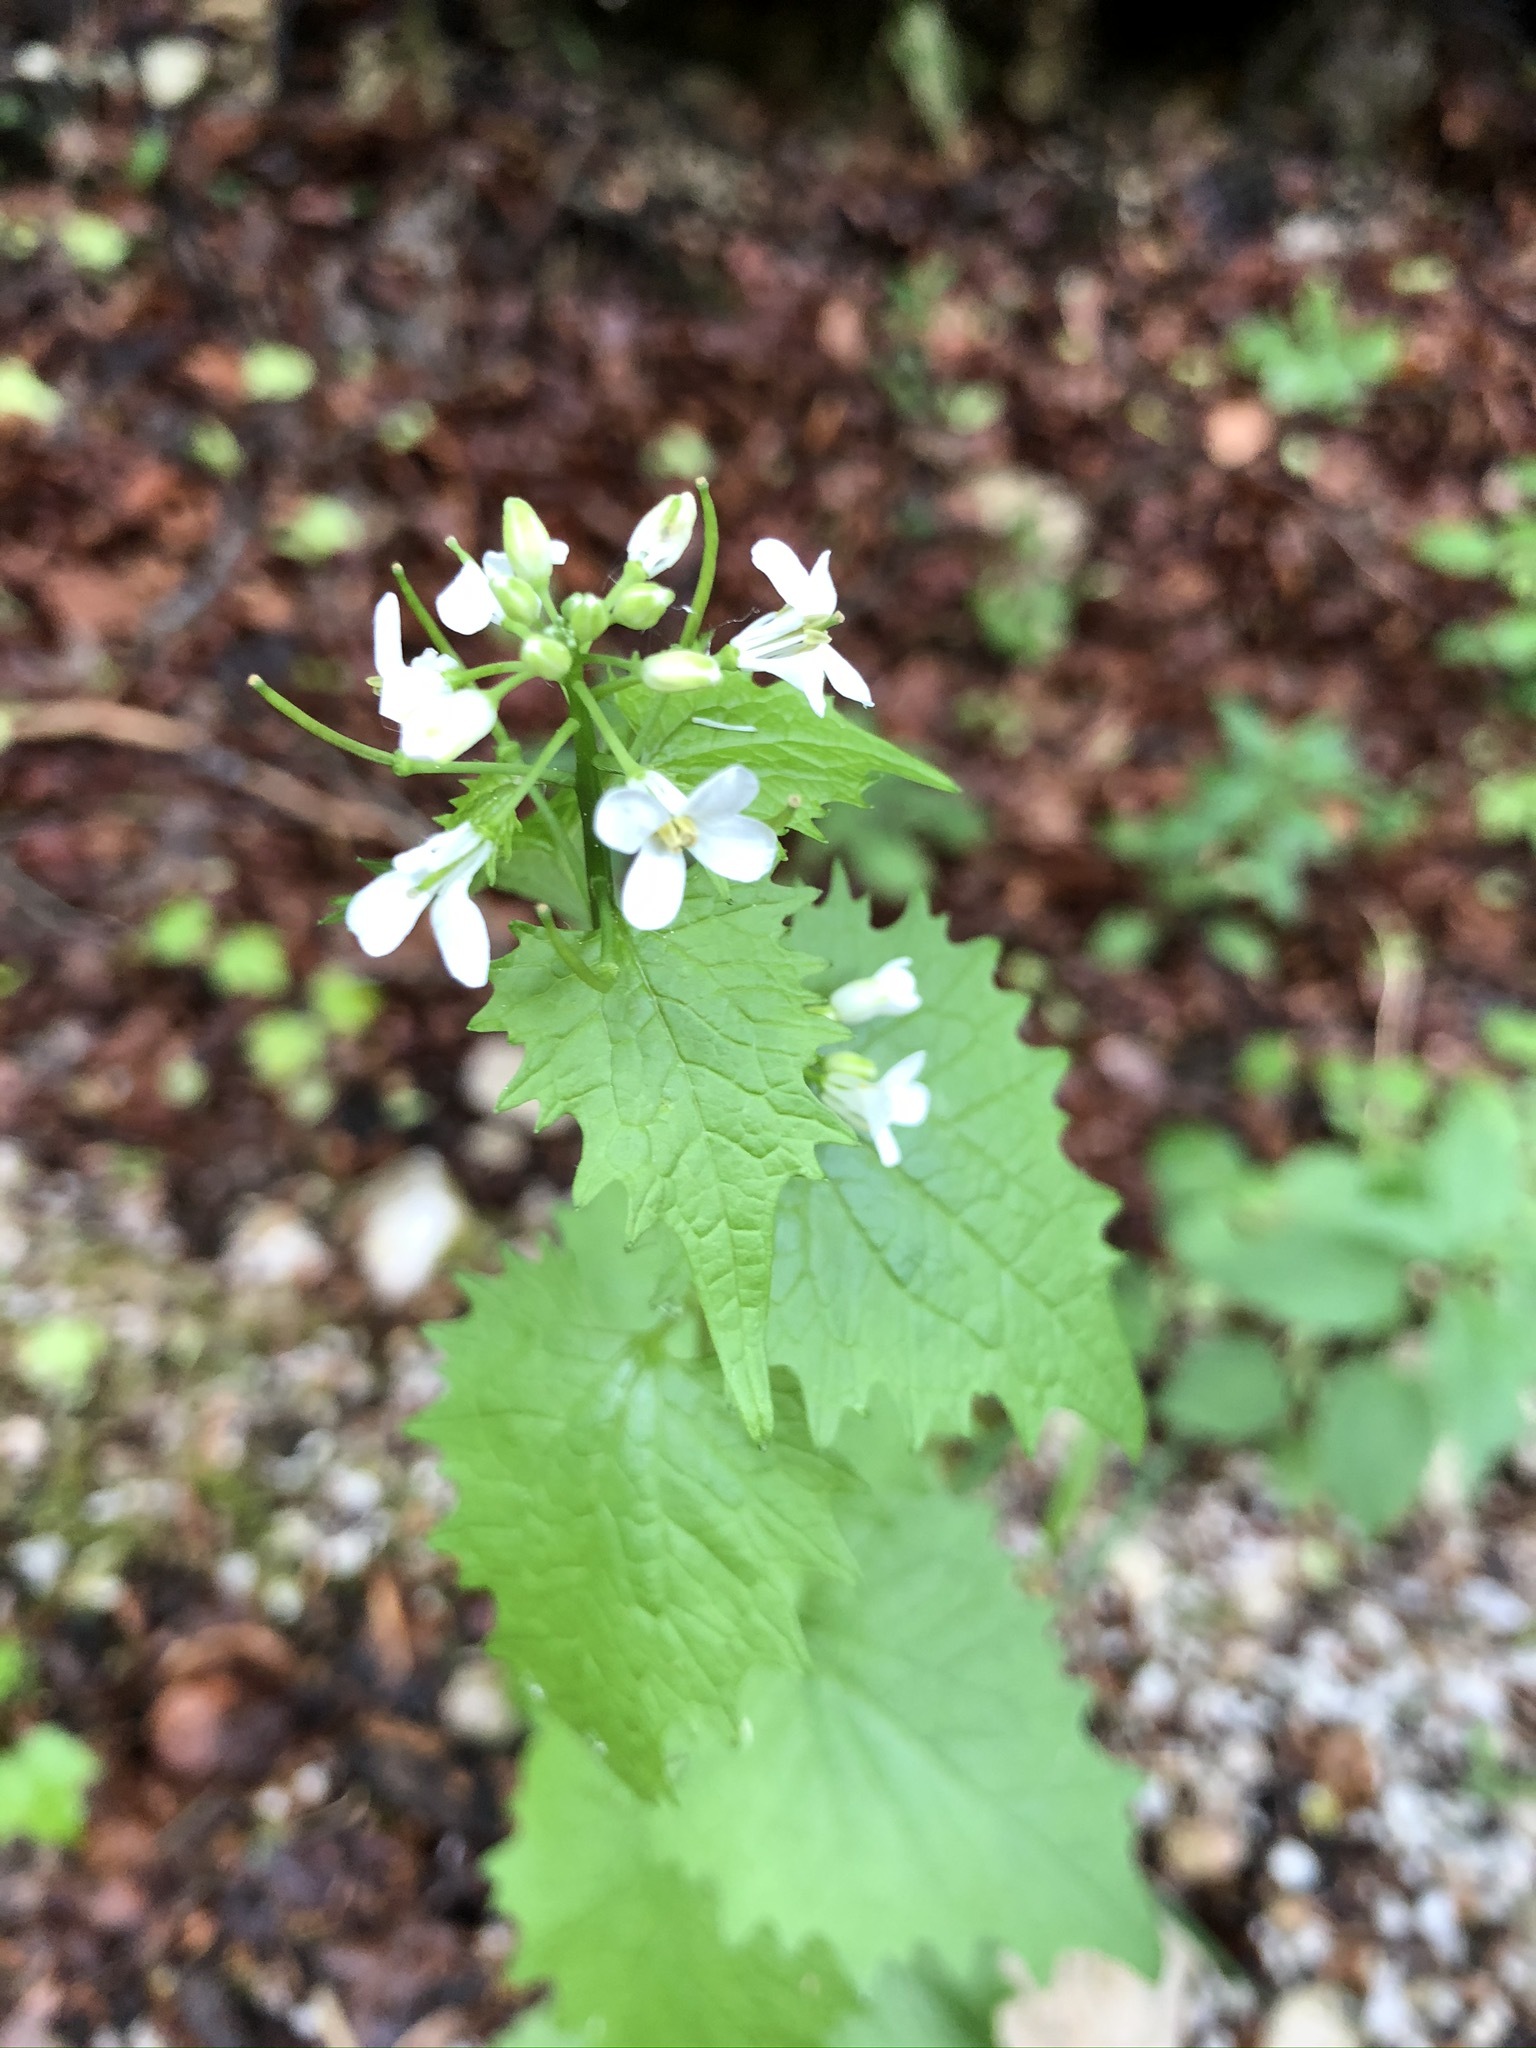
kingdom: Plantae
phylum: Tracheophyta
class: Magnoliopsida
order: Brassicales
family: Brassicaceae
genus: Alliaria
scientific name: Alliaria petiolata
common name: Garlic mustard
